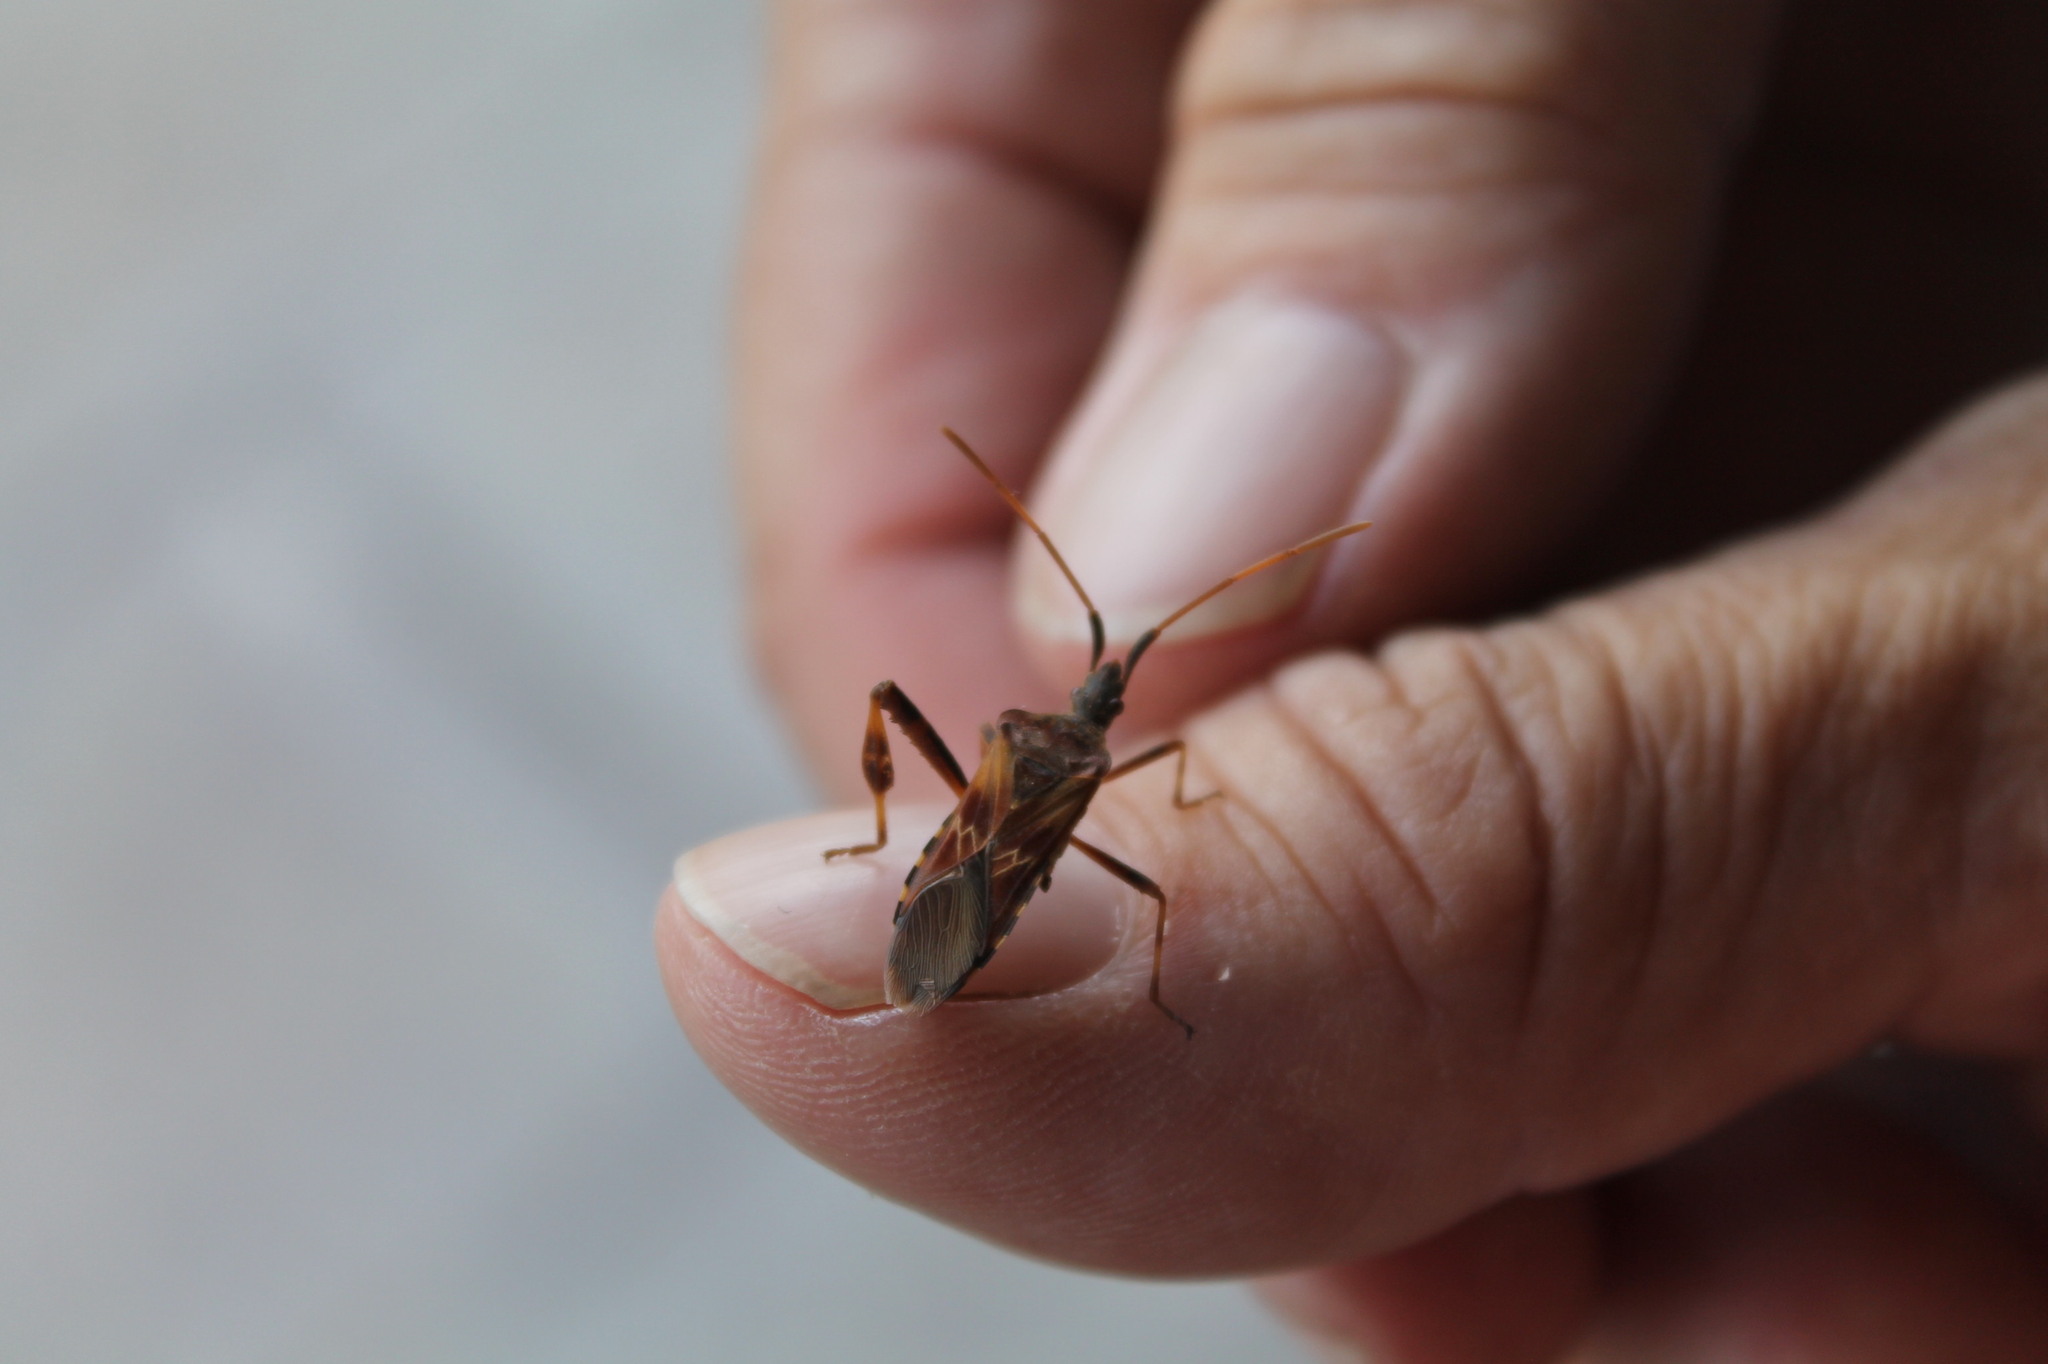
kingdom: Animalia
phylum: Arthropoda
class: Insecta
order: Hemiptera
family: Coreidae
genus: Leptoglossus
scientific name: Leptoglossus occidentalis
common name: Western conifer-seed bug
